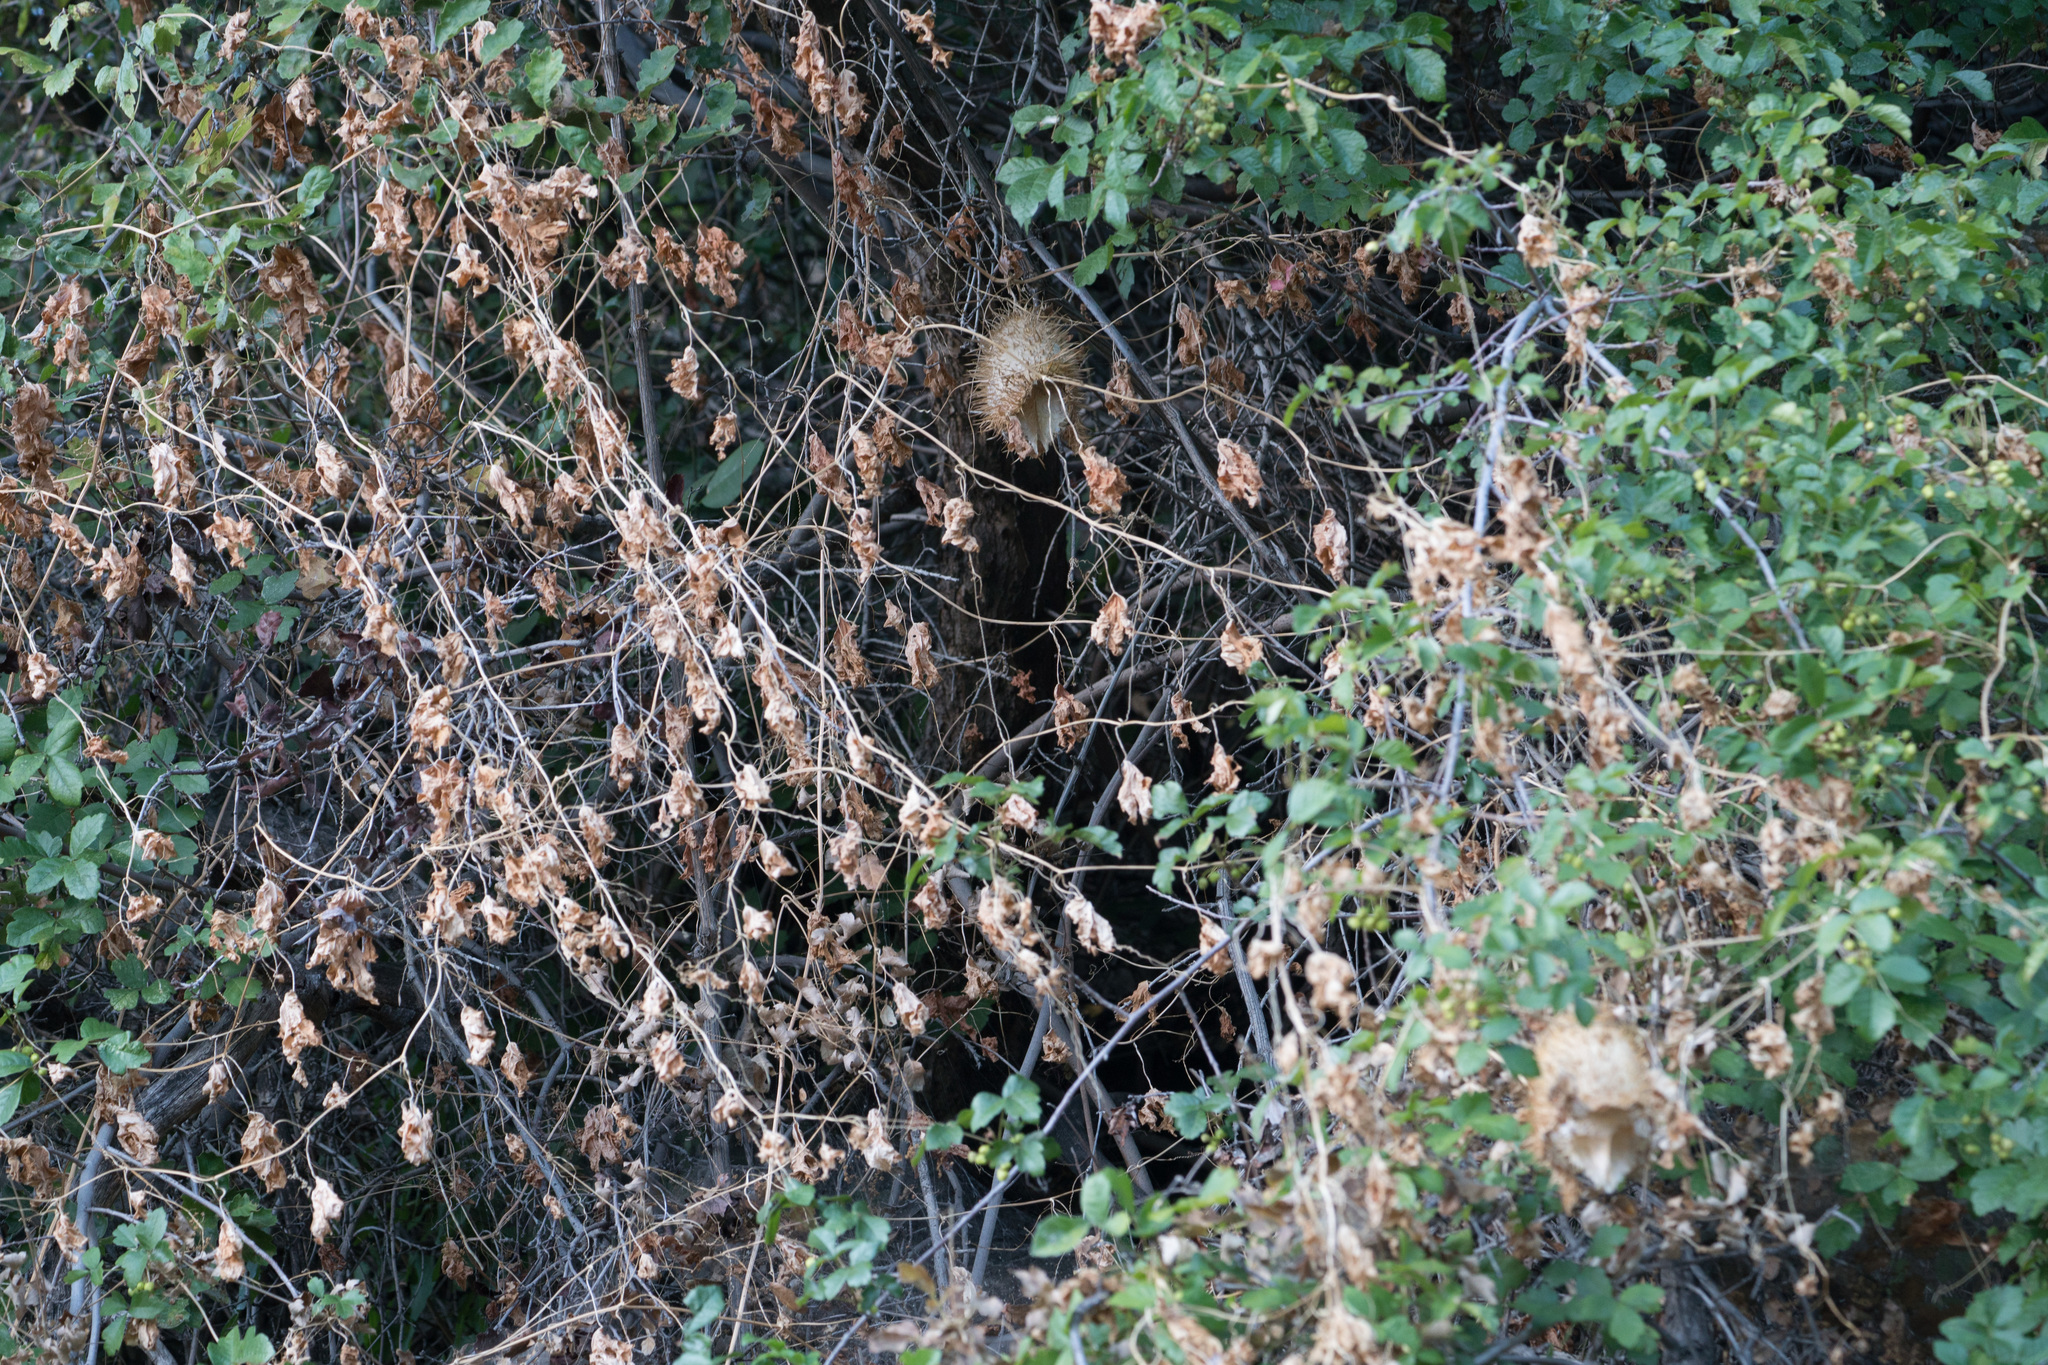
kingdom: Plantae
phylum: Tracheophyta
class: Magnoliopsida
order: Cucurbitales
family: Cucurbitaceae
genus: Marah
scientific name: Marah macrocarpa
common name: Cucamonga manroot
